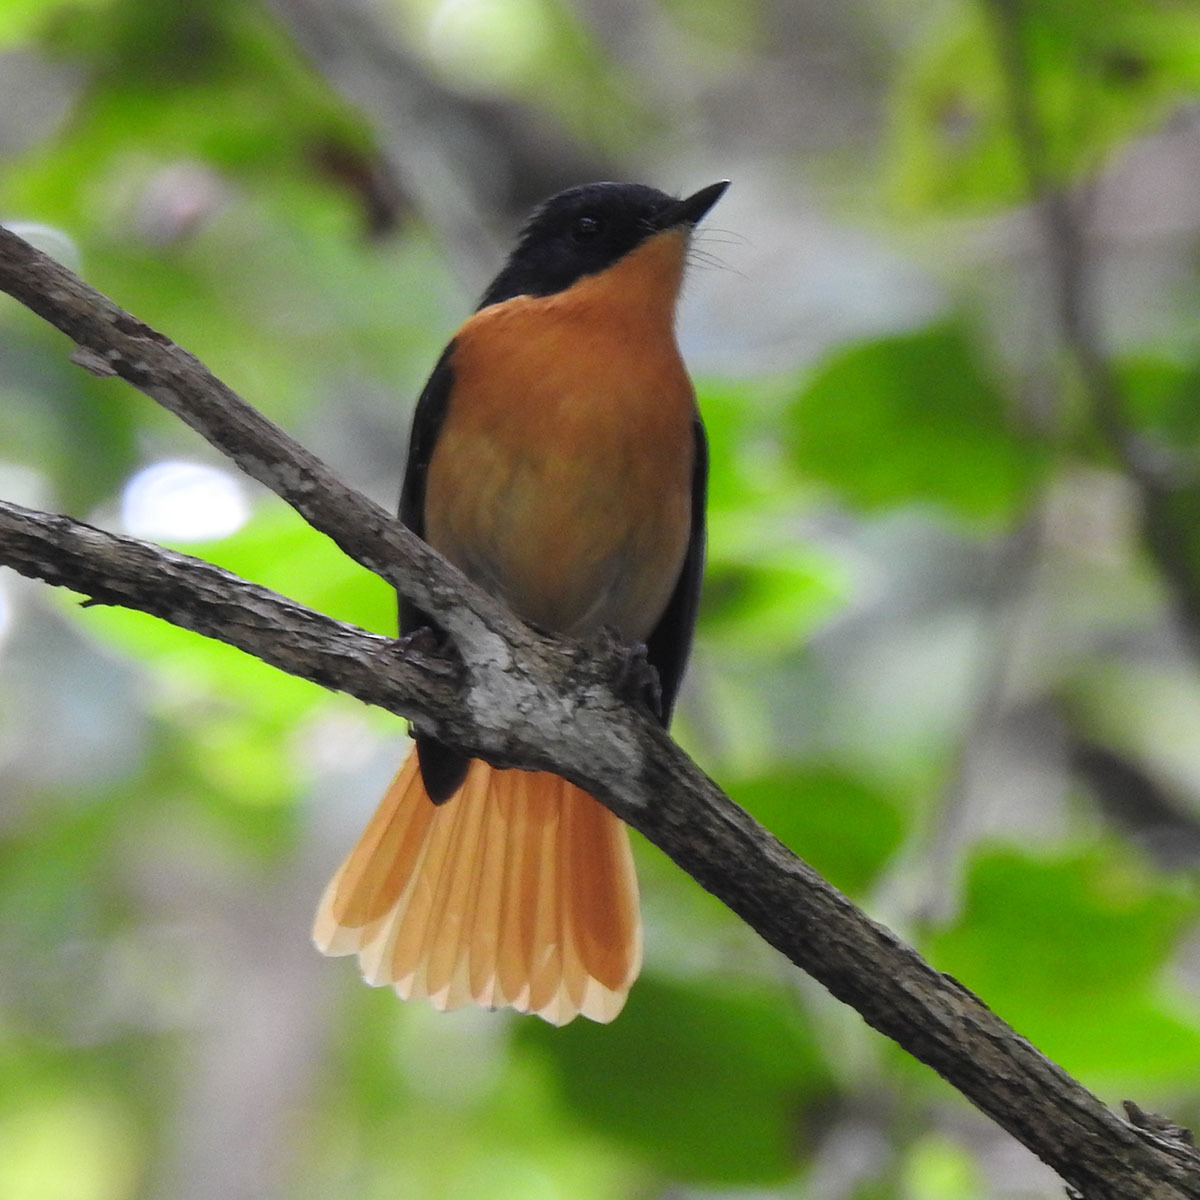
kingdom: Animalia
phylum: Chordata
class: Aves
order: Passeriformes
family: Muscicapidae
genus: Ficedula
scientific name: Ficedula nigrorufa
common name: Black-and-orange flycatcher
